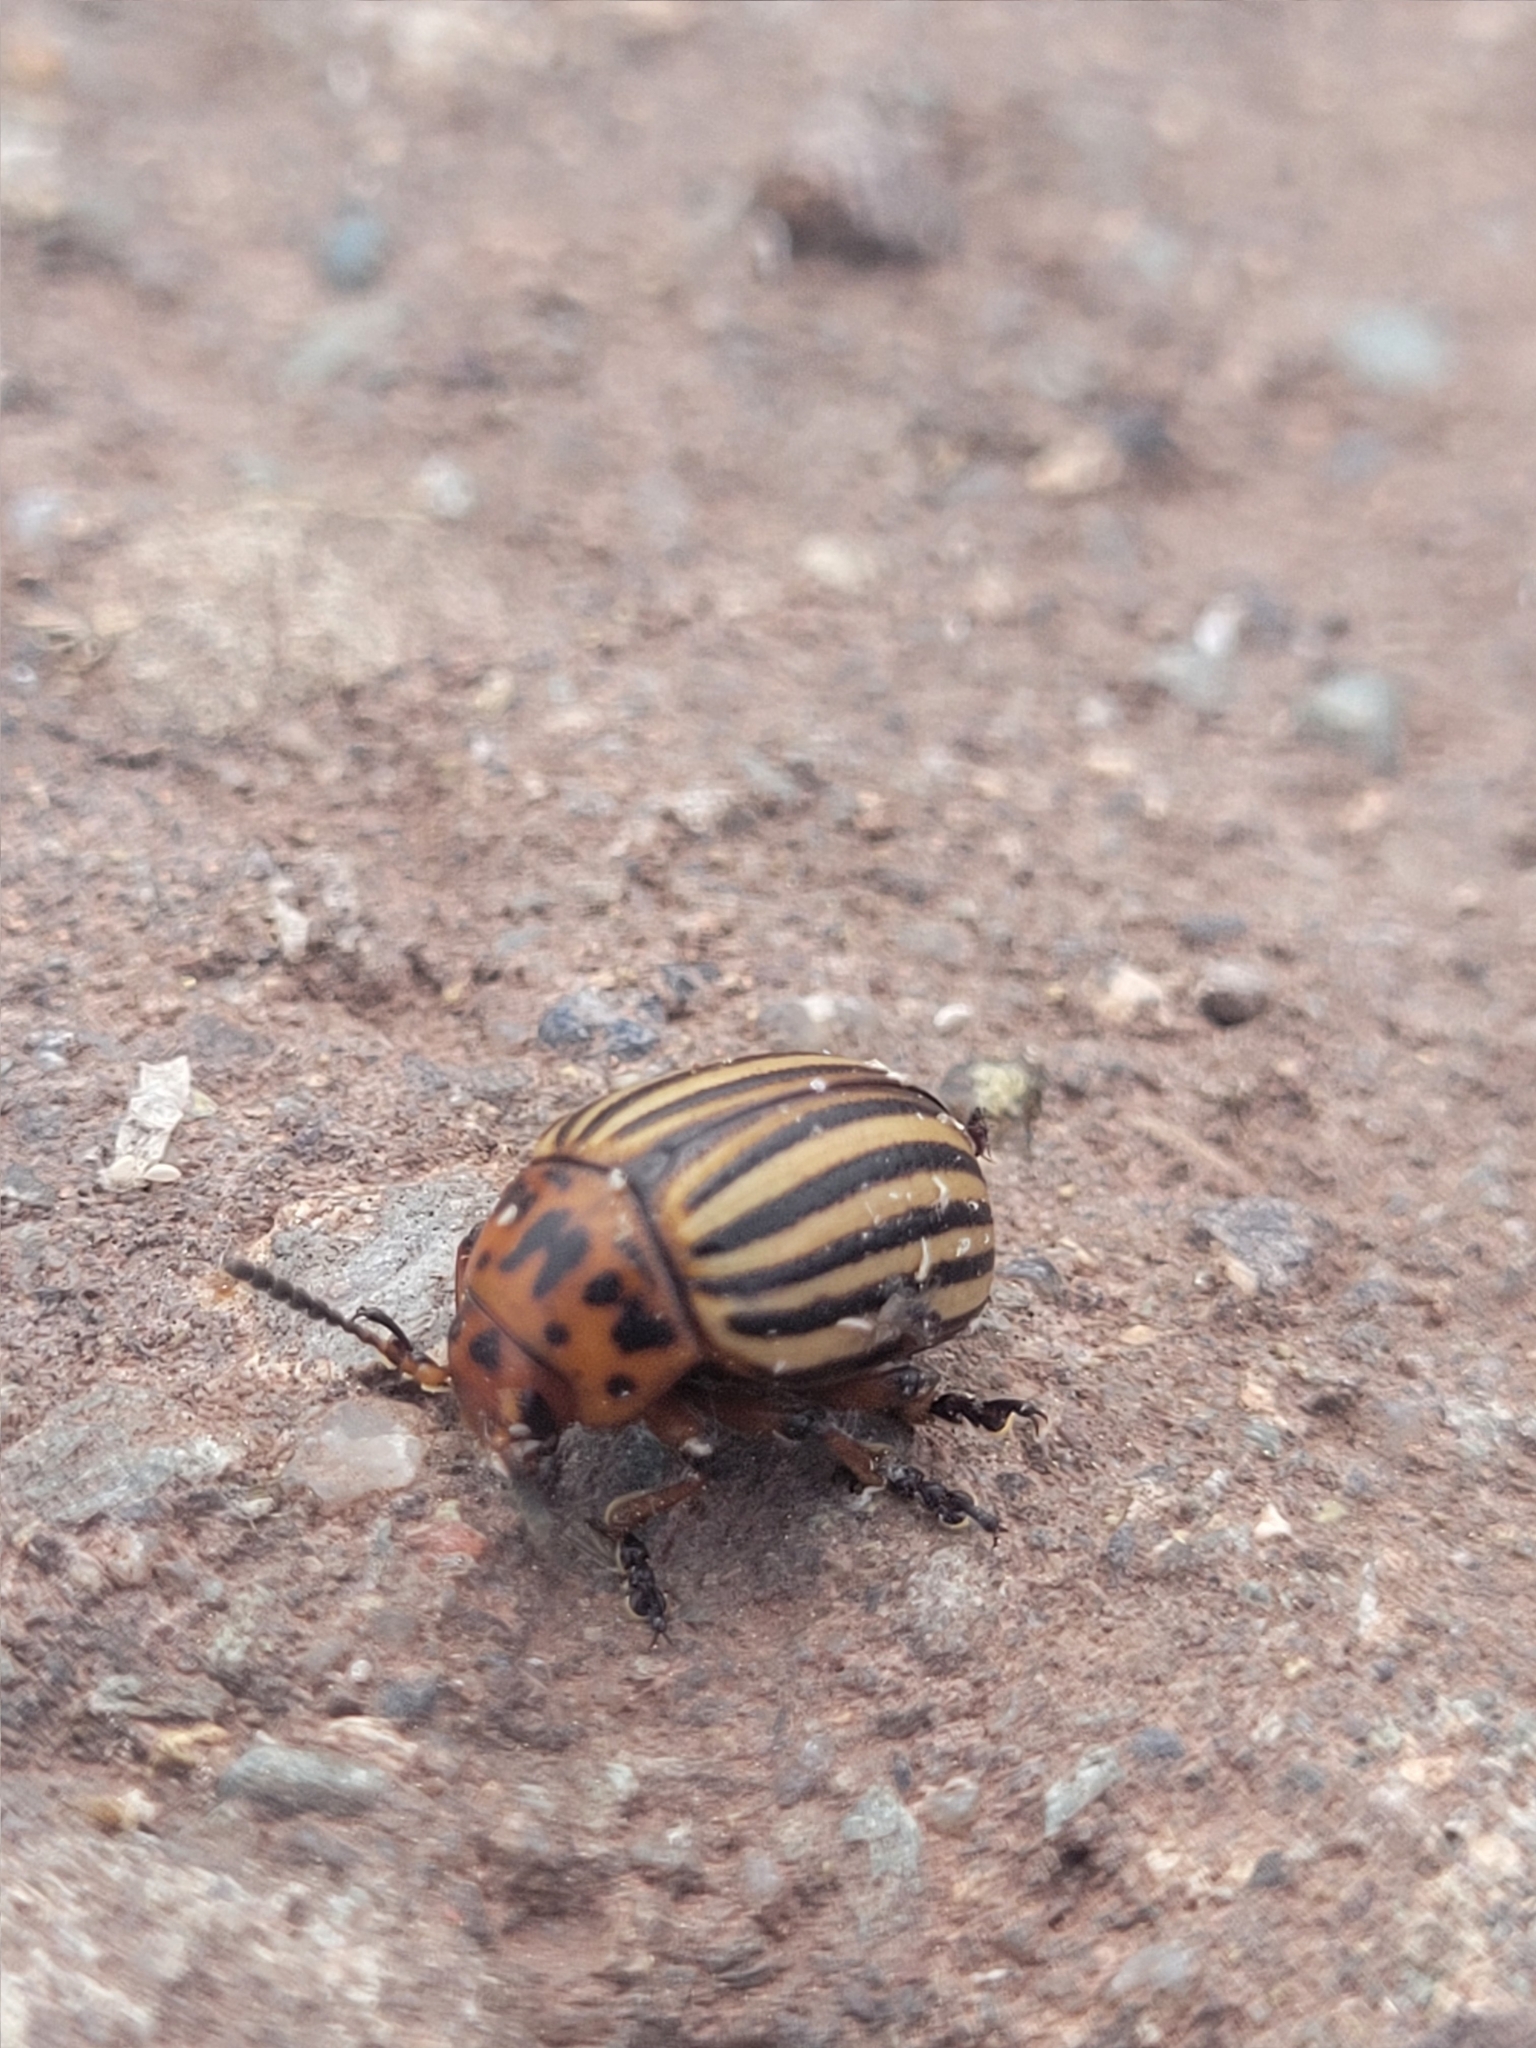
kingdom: Animalia
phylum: Arthropoda
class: Insecta
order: Coleoptera
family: Chrysomelidae
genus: Leptinotarsa
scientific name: Leptinotarsa decemlineata
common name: Colorado potato beetle
